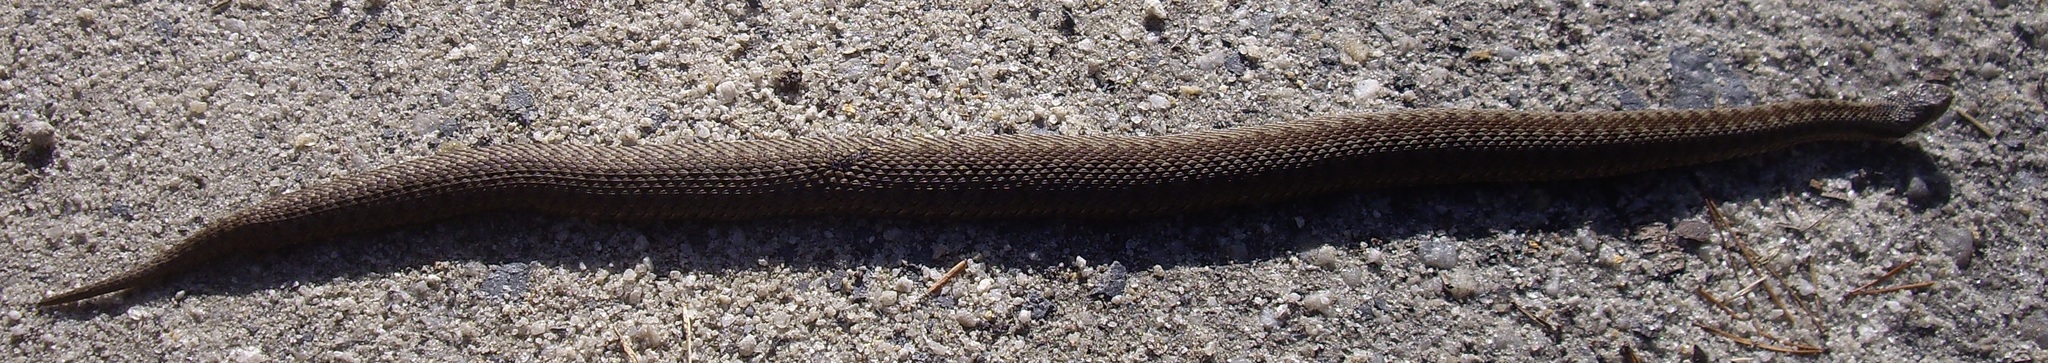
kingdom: Animalia
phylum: Chordata
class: Squamata
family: Viperidae
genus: Vipera
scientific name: Vipera berus
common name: Adder
